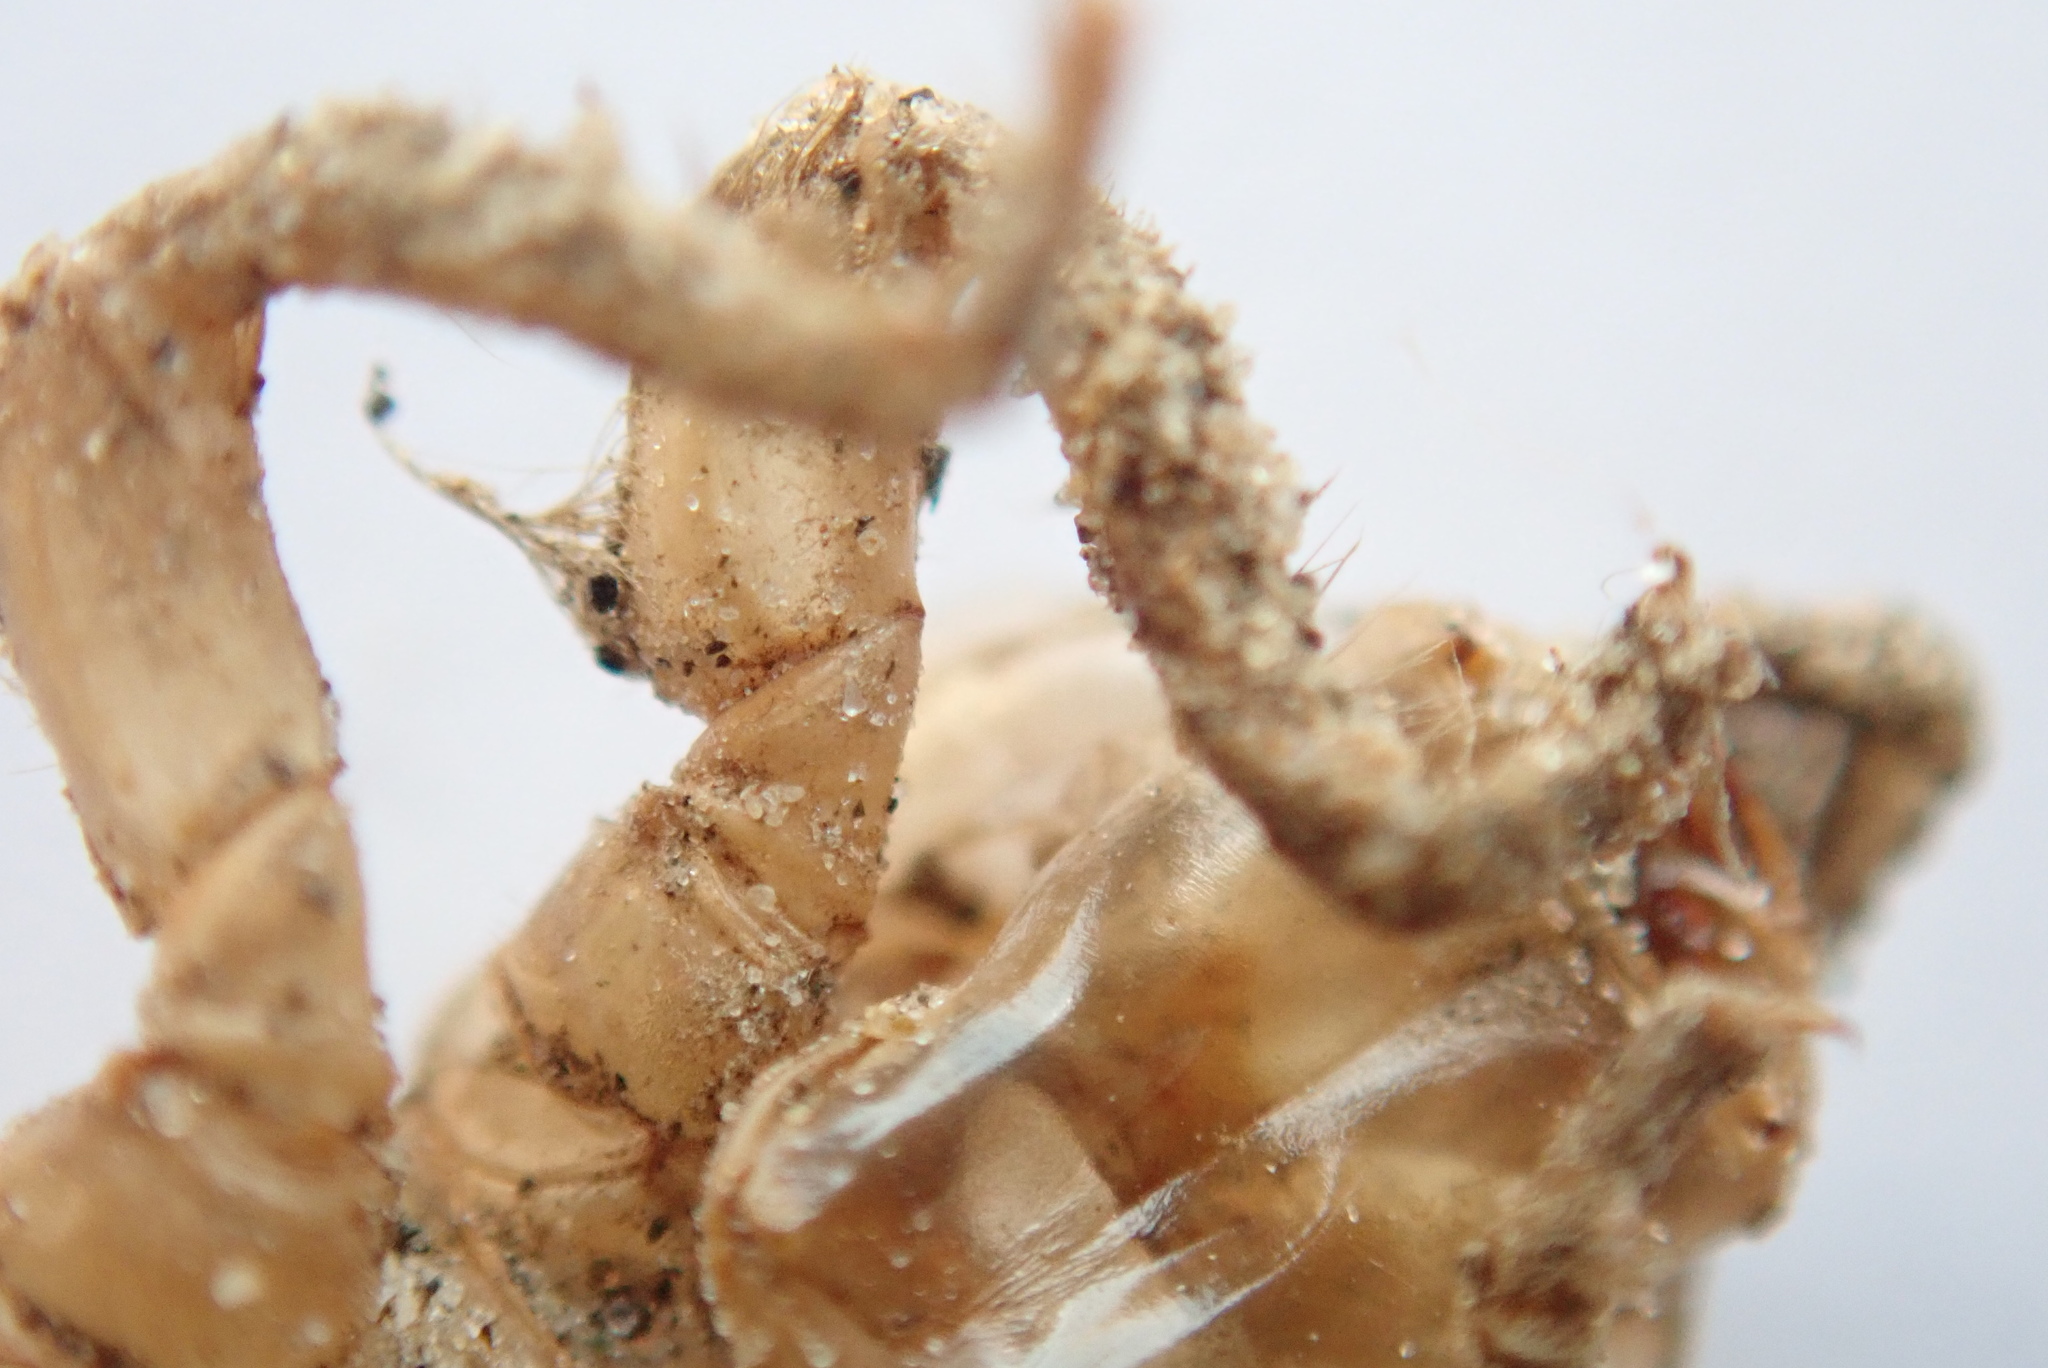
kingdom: Animalia
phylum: Arthropoda
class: Insecta
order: Odonata
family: Gomphidae
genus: Stylurus
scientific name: Stylurus spiniceps
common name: Arrow clubtail
